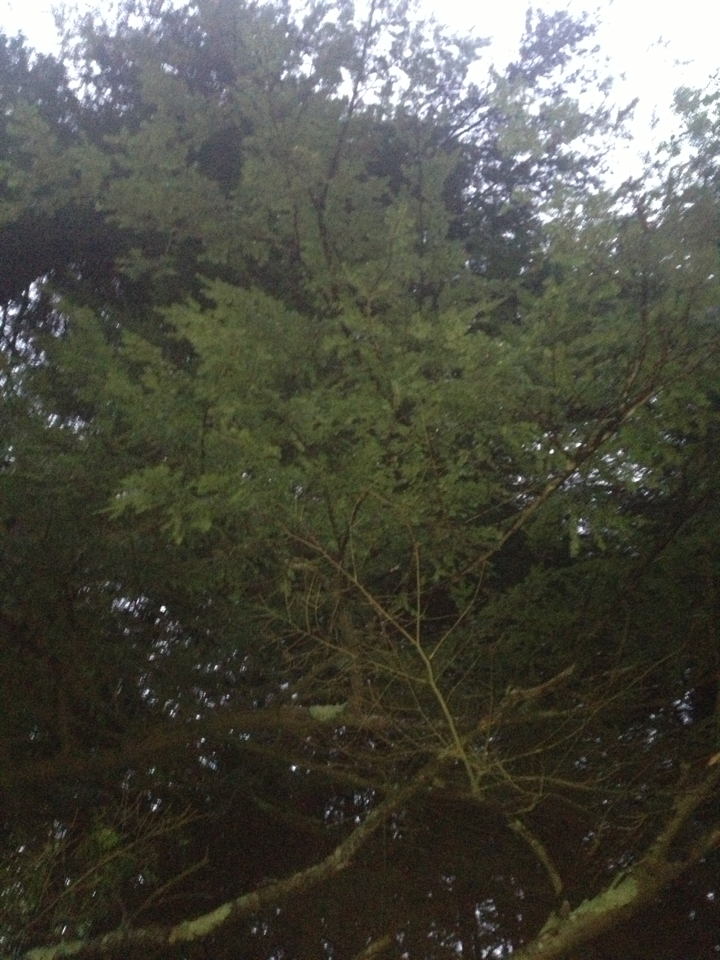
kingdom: Plantae
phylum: Tracheophyta
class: Pinopsida
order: Pinales
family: Pinaceae
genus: Tsuga
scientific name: Tsuga canadensis
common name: Eastern hemlock
